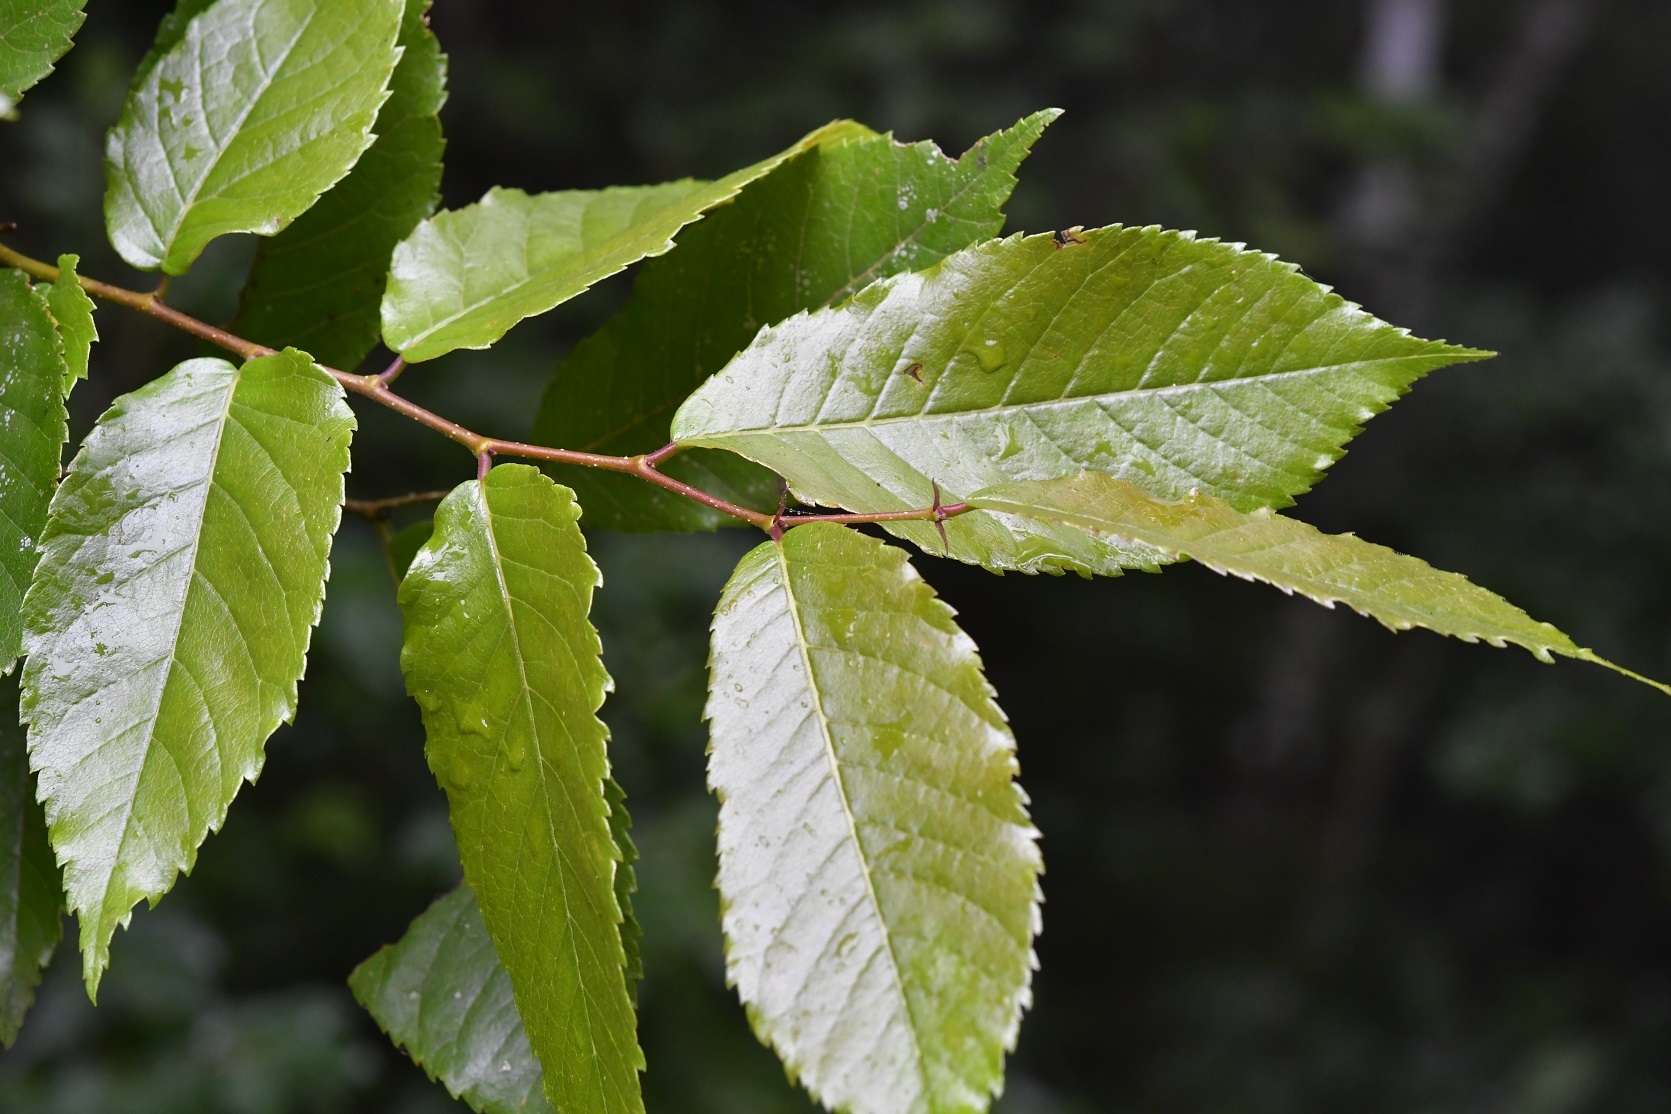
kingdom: Plantae
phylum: Tracheophyta
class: Magnoliopsida
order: Rosales
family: Cannabaceae
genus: Aphananthe
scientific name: Aphananthe monoica
